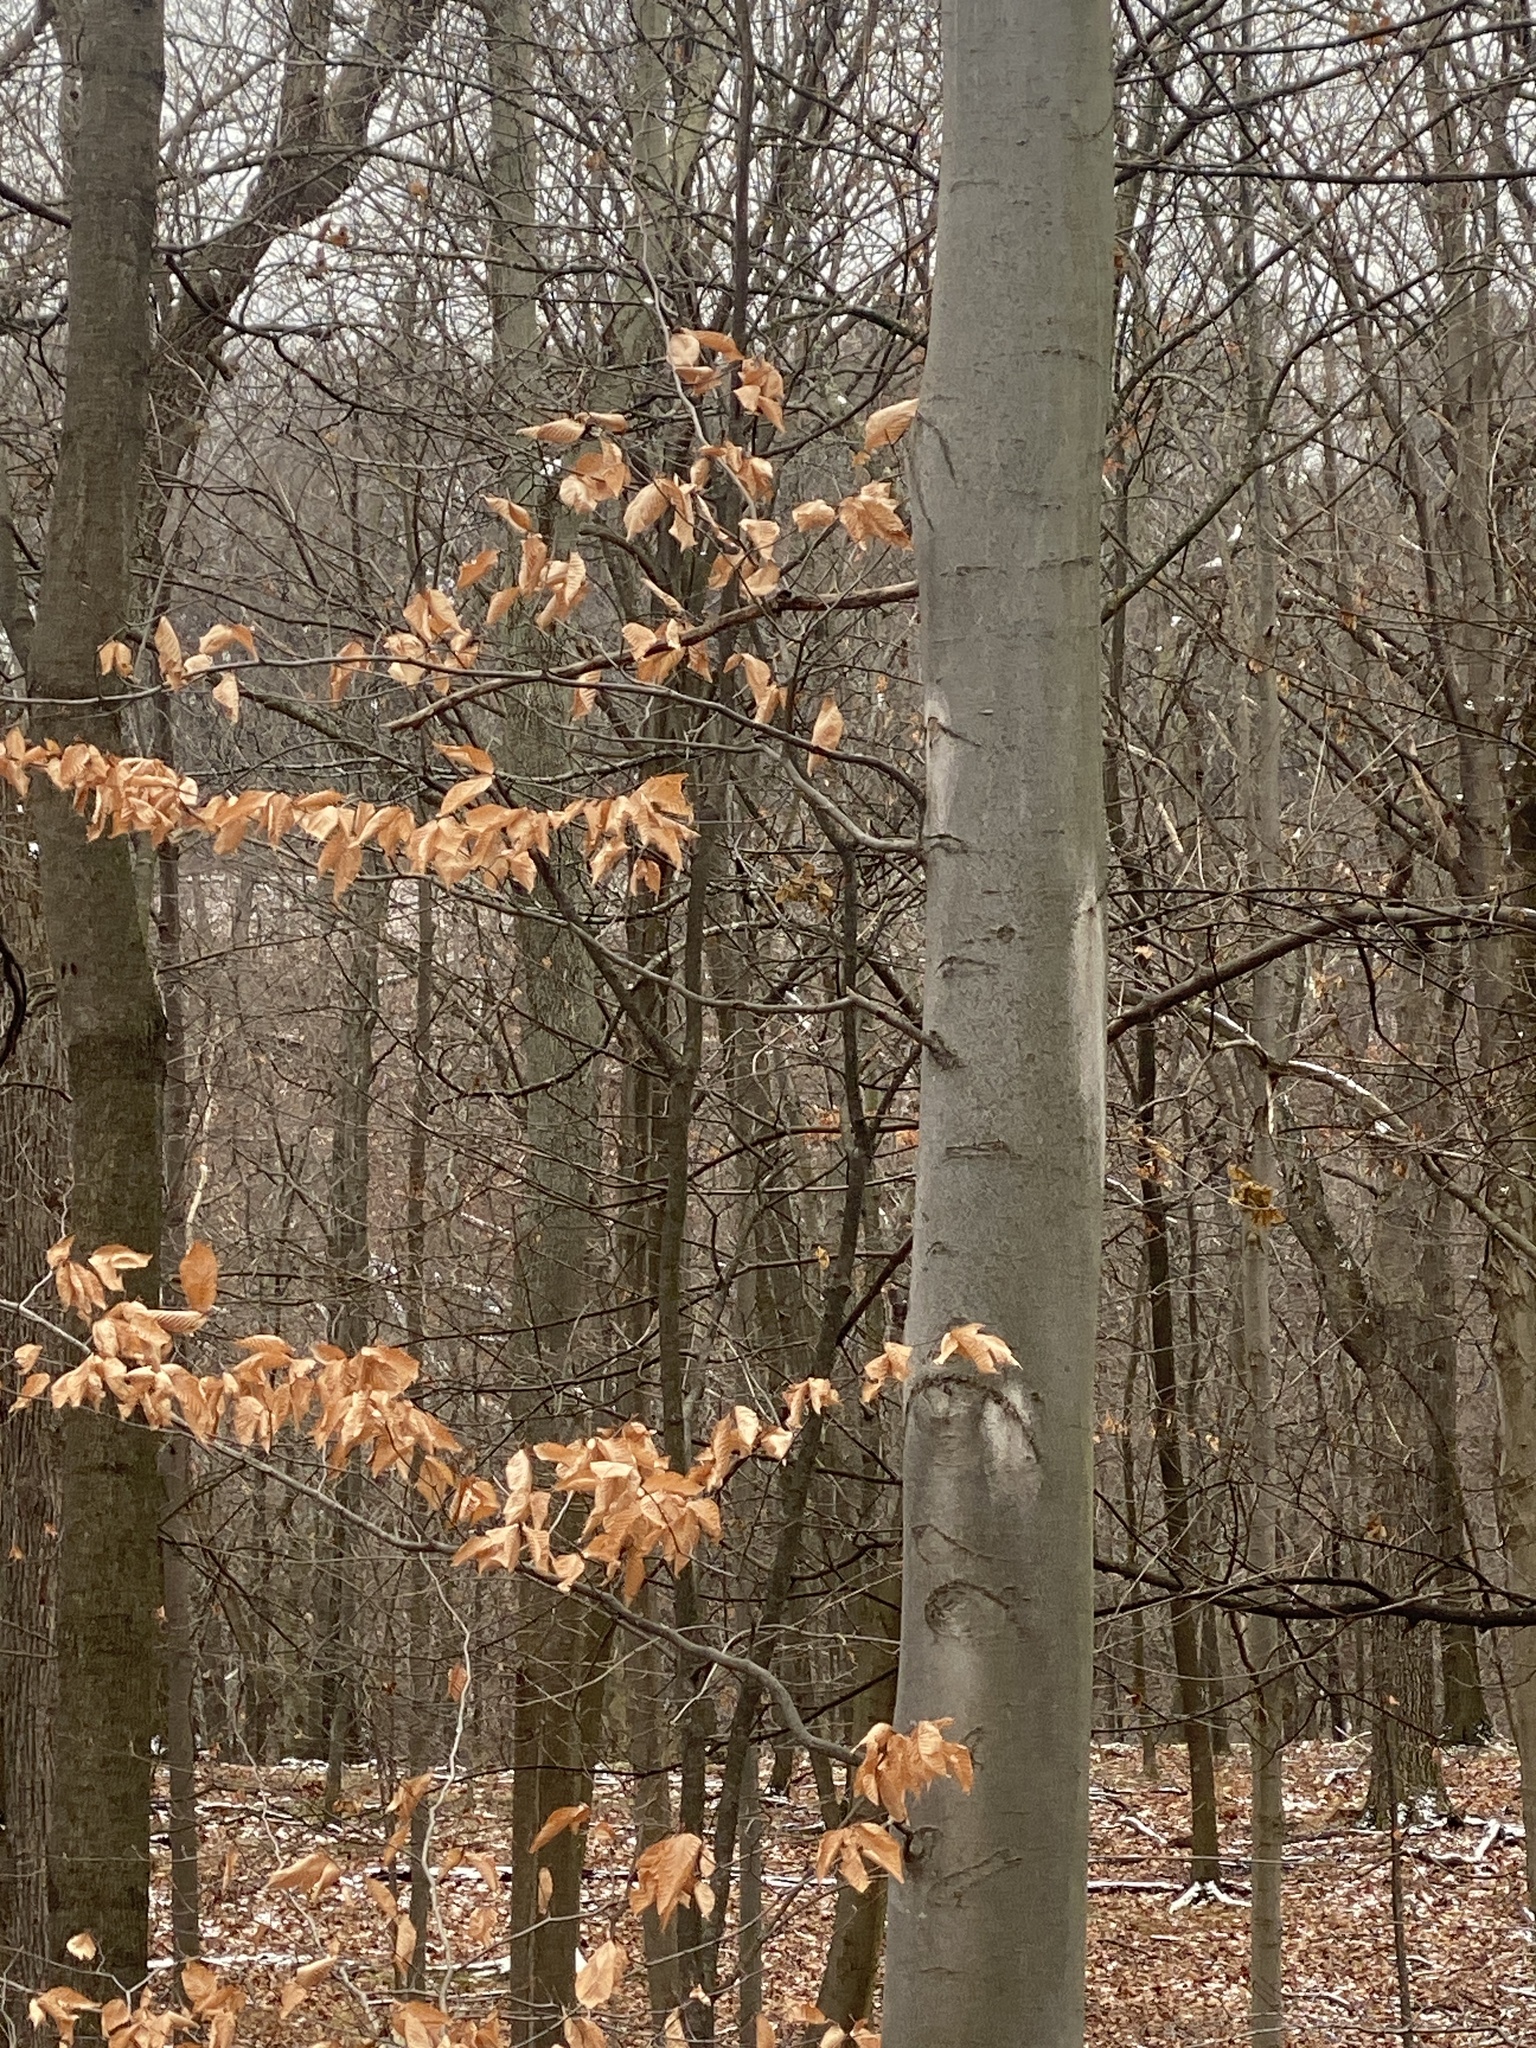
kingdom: Plantae
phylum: Tracheophyta
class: Magnoliopsida
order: Fagales
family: Fagaceae
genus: Fagus
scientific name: Fagus grandifolia
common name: American beech
